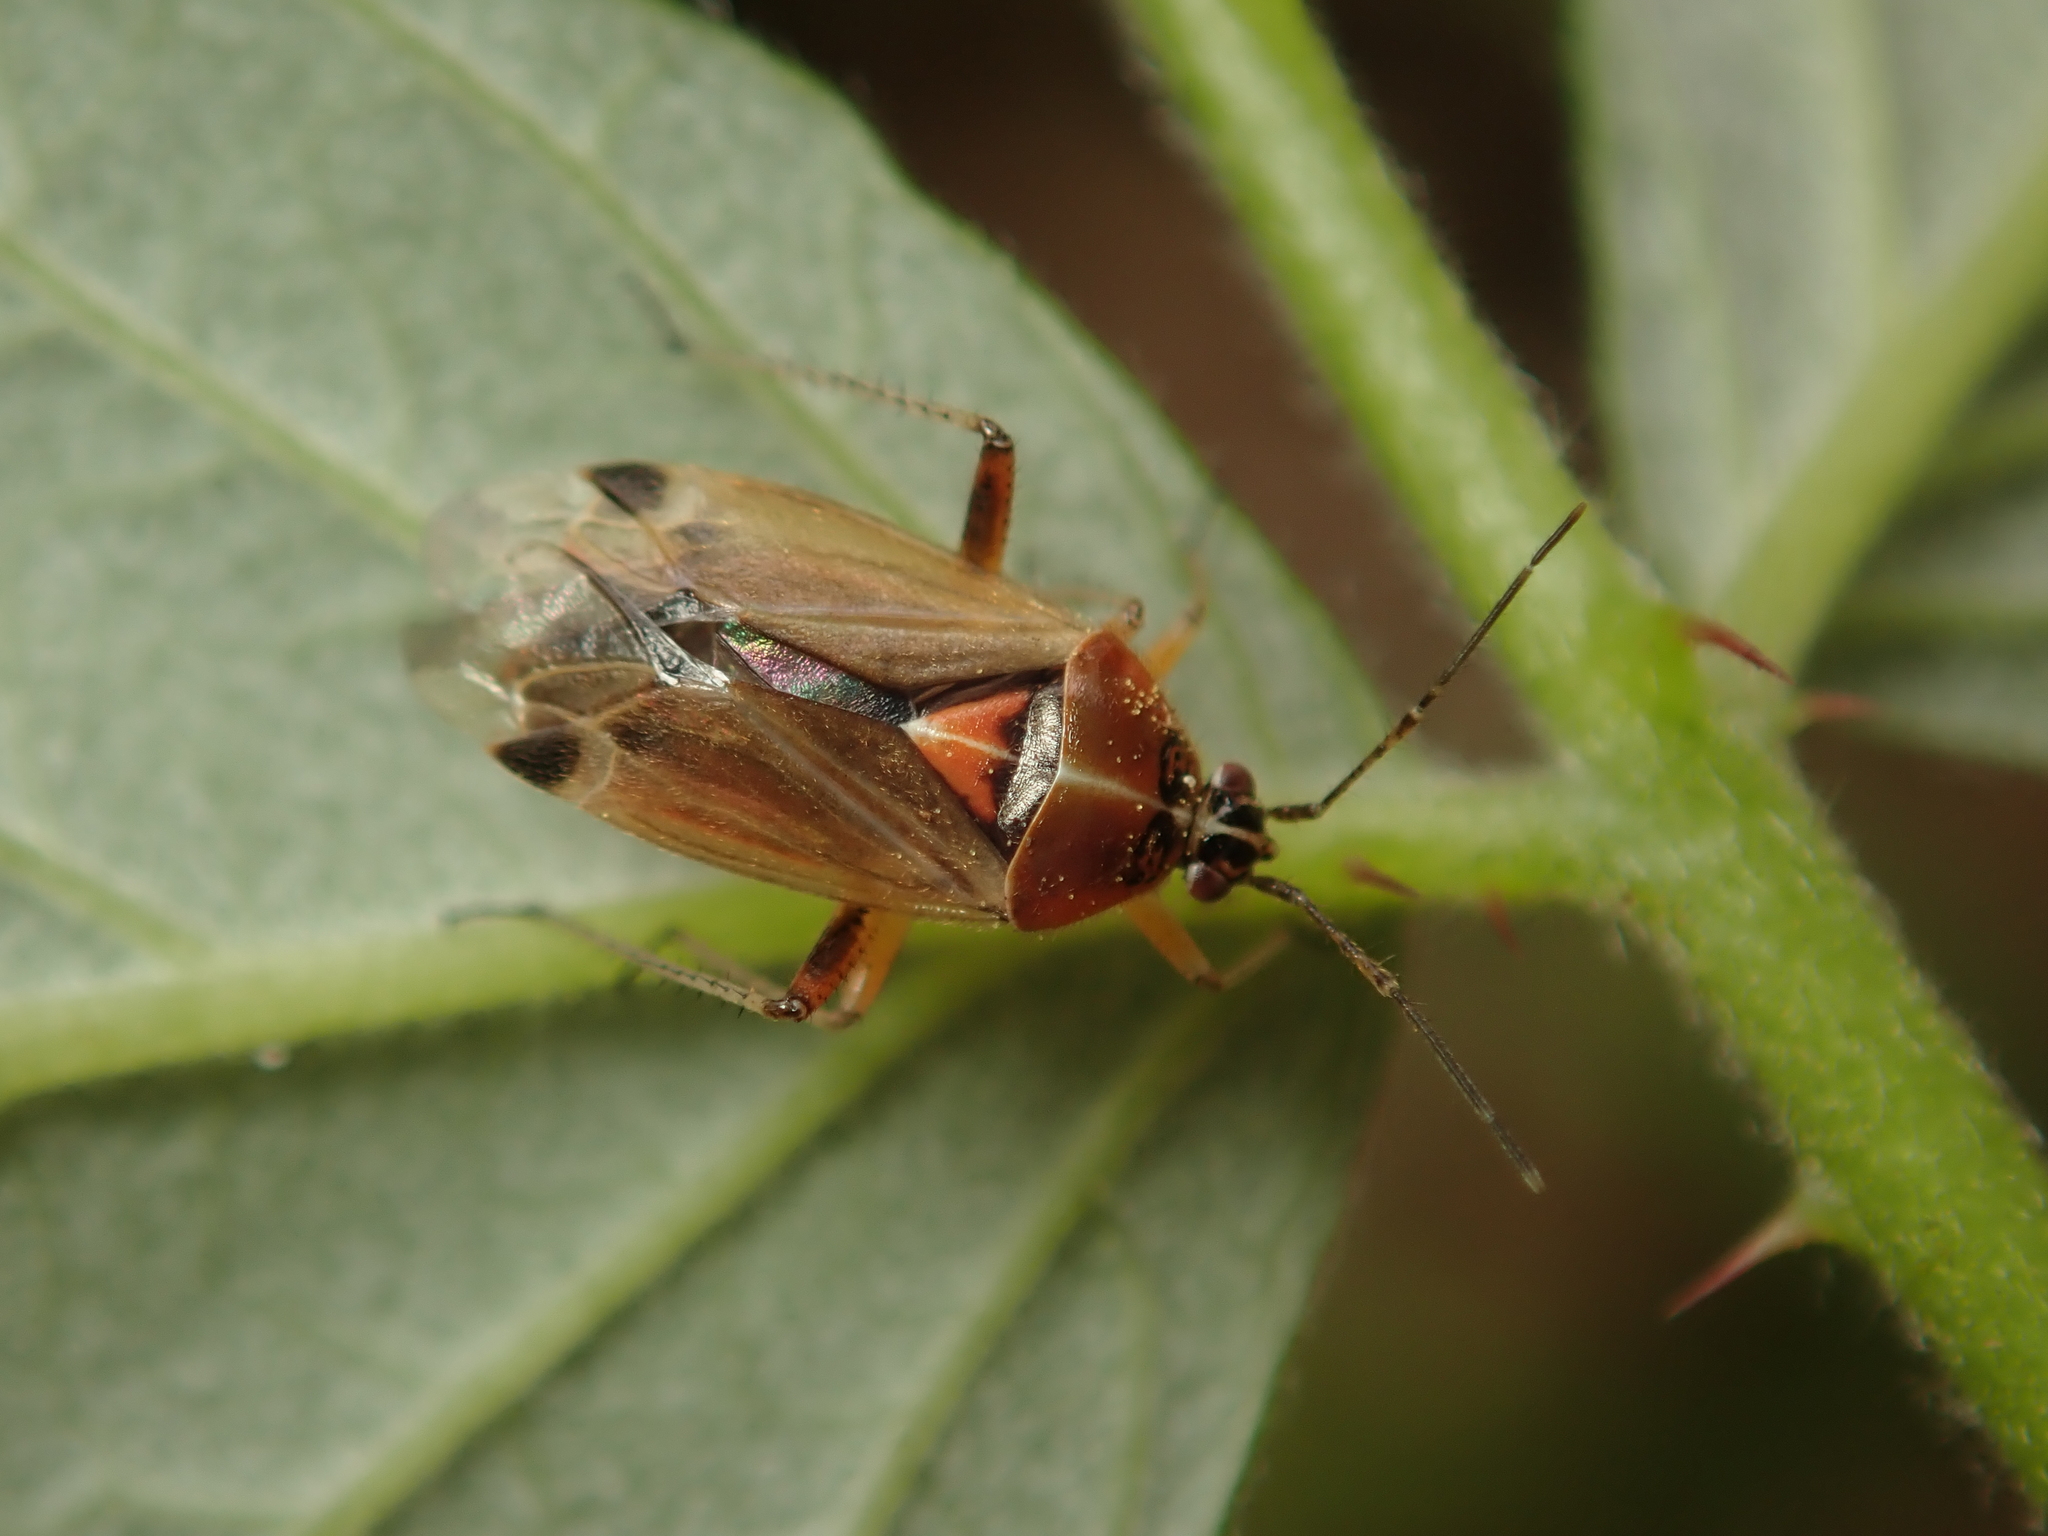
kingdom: Animalia
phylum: Arthropoda
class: Insecta
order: Hemiptera
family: Miridae
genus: Harpocera
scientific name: Harpocera thoracica
